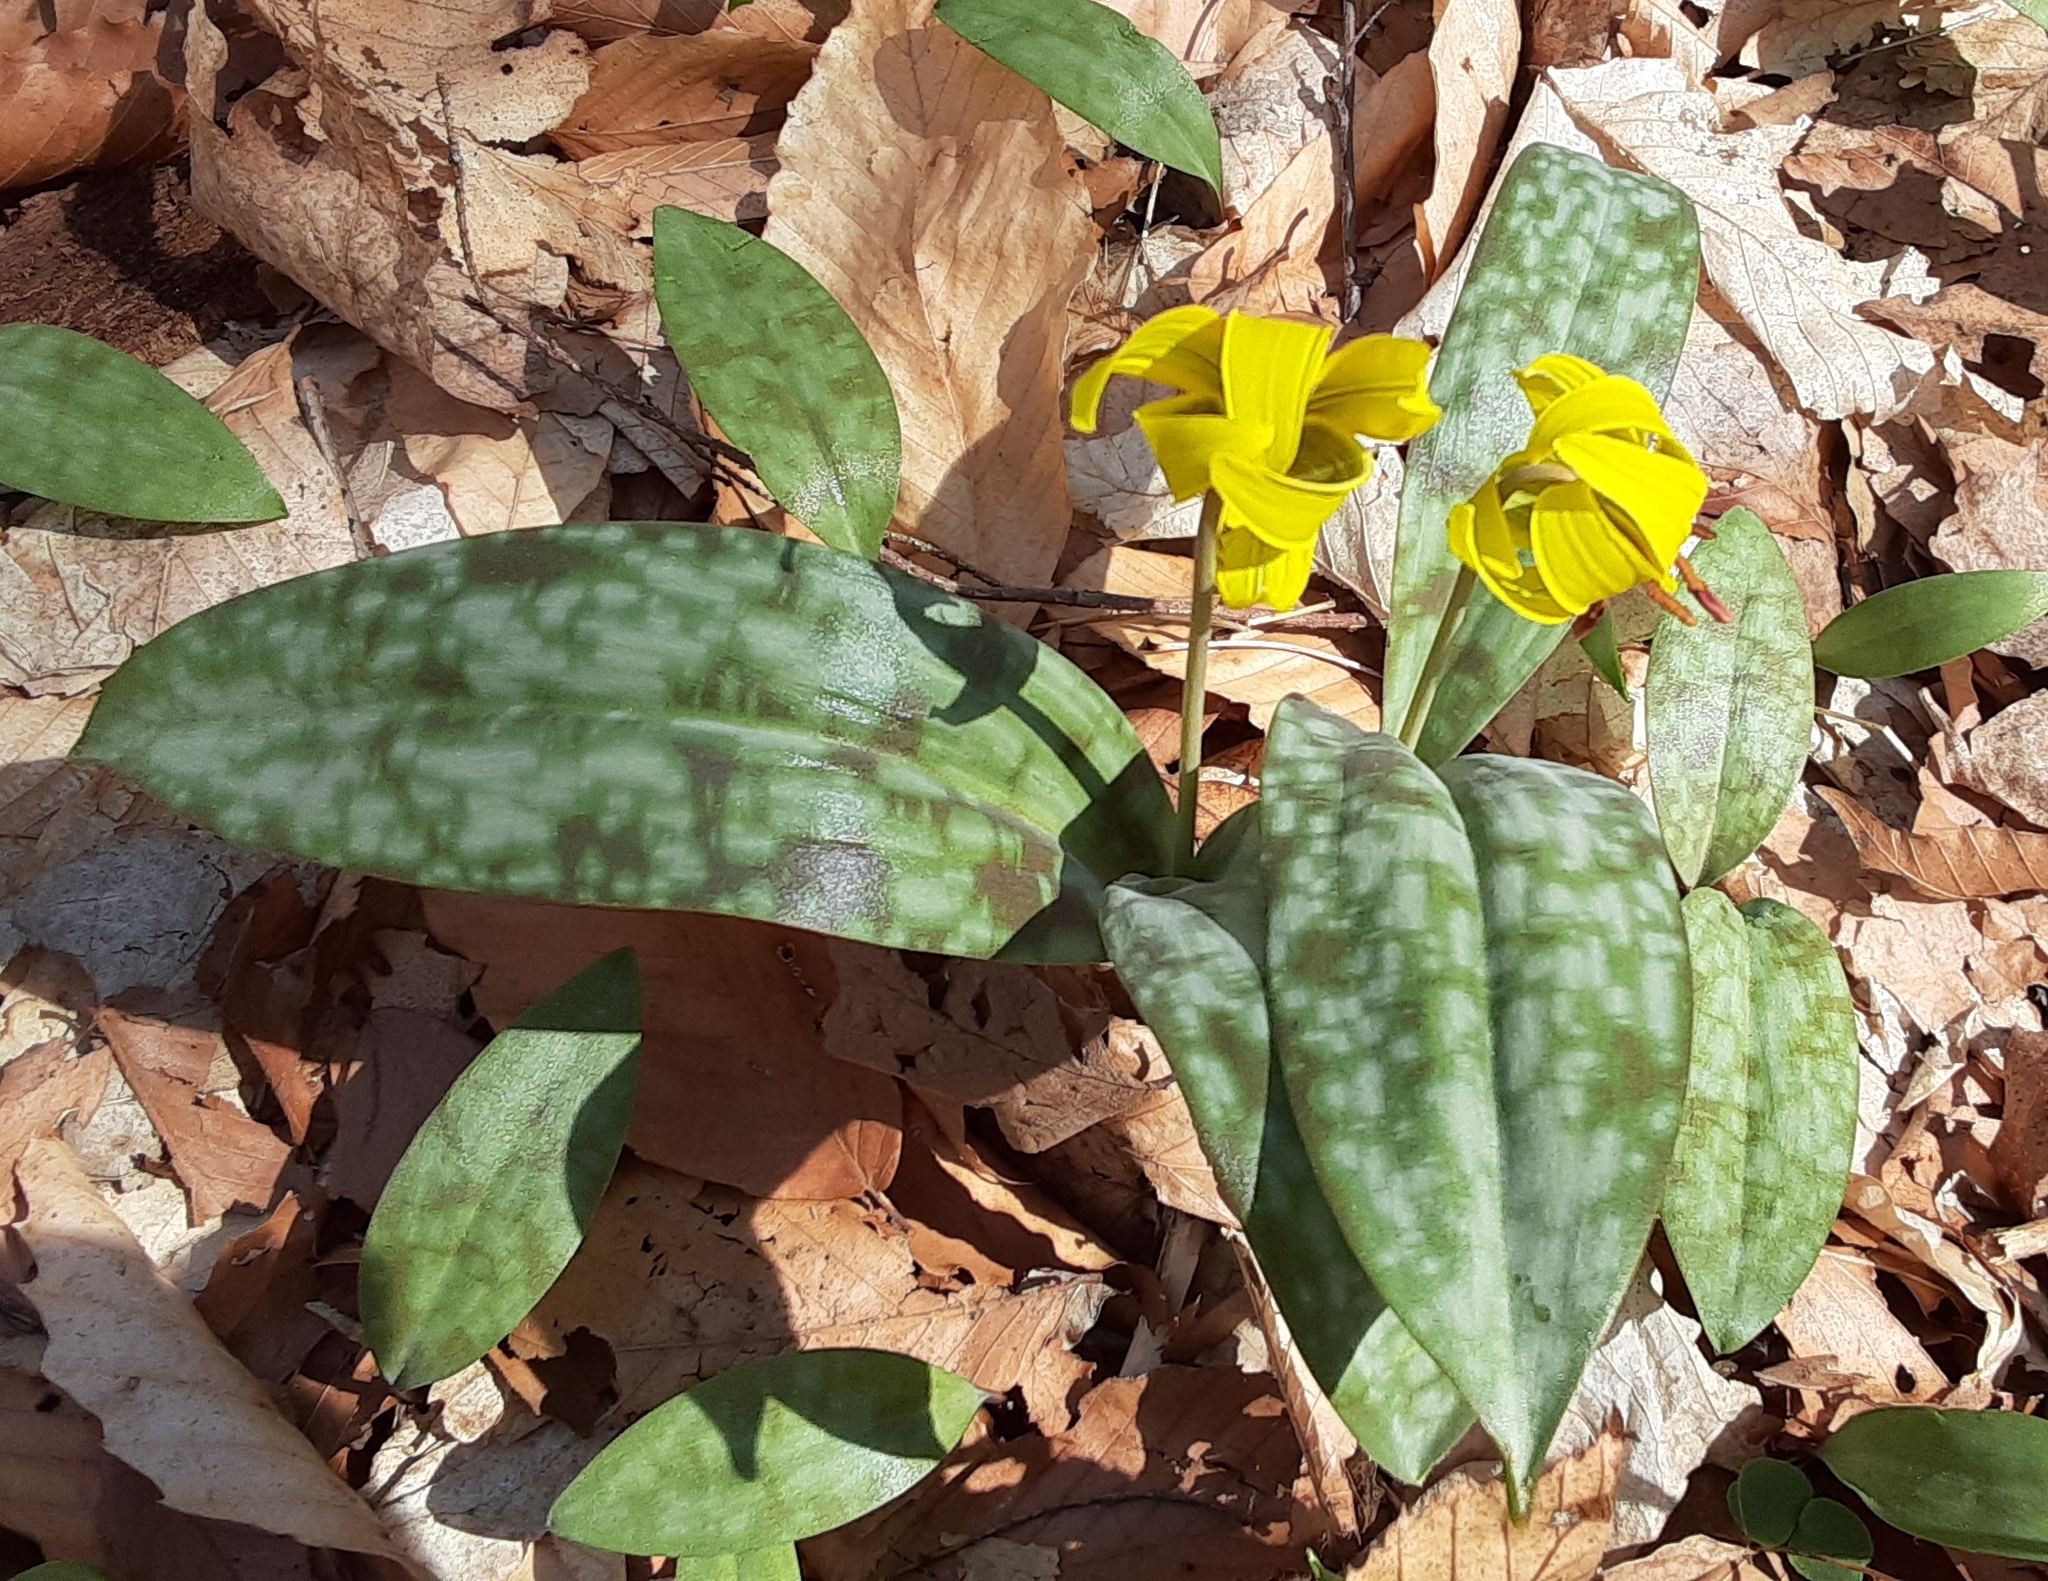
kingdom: Plantae
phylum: Tracheophyta
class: Liliopsida
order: Liliales
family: Liliaceae
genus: Erythronium
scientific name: Erythronium americanum
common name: Yellow adder's-tongue
